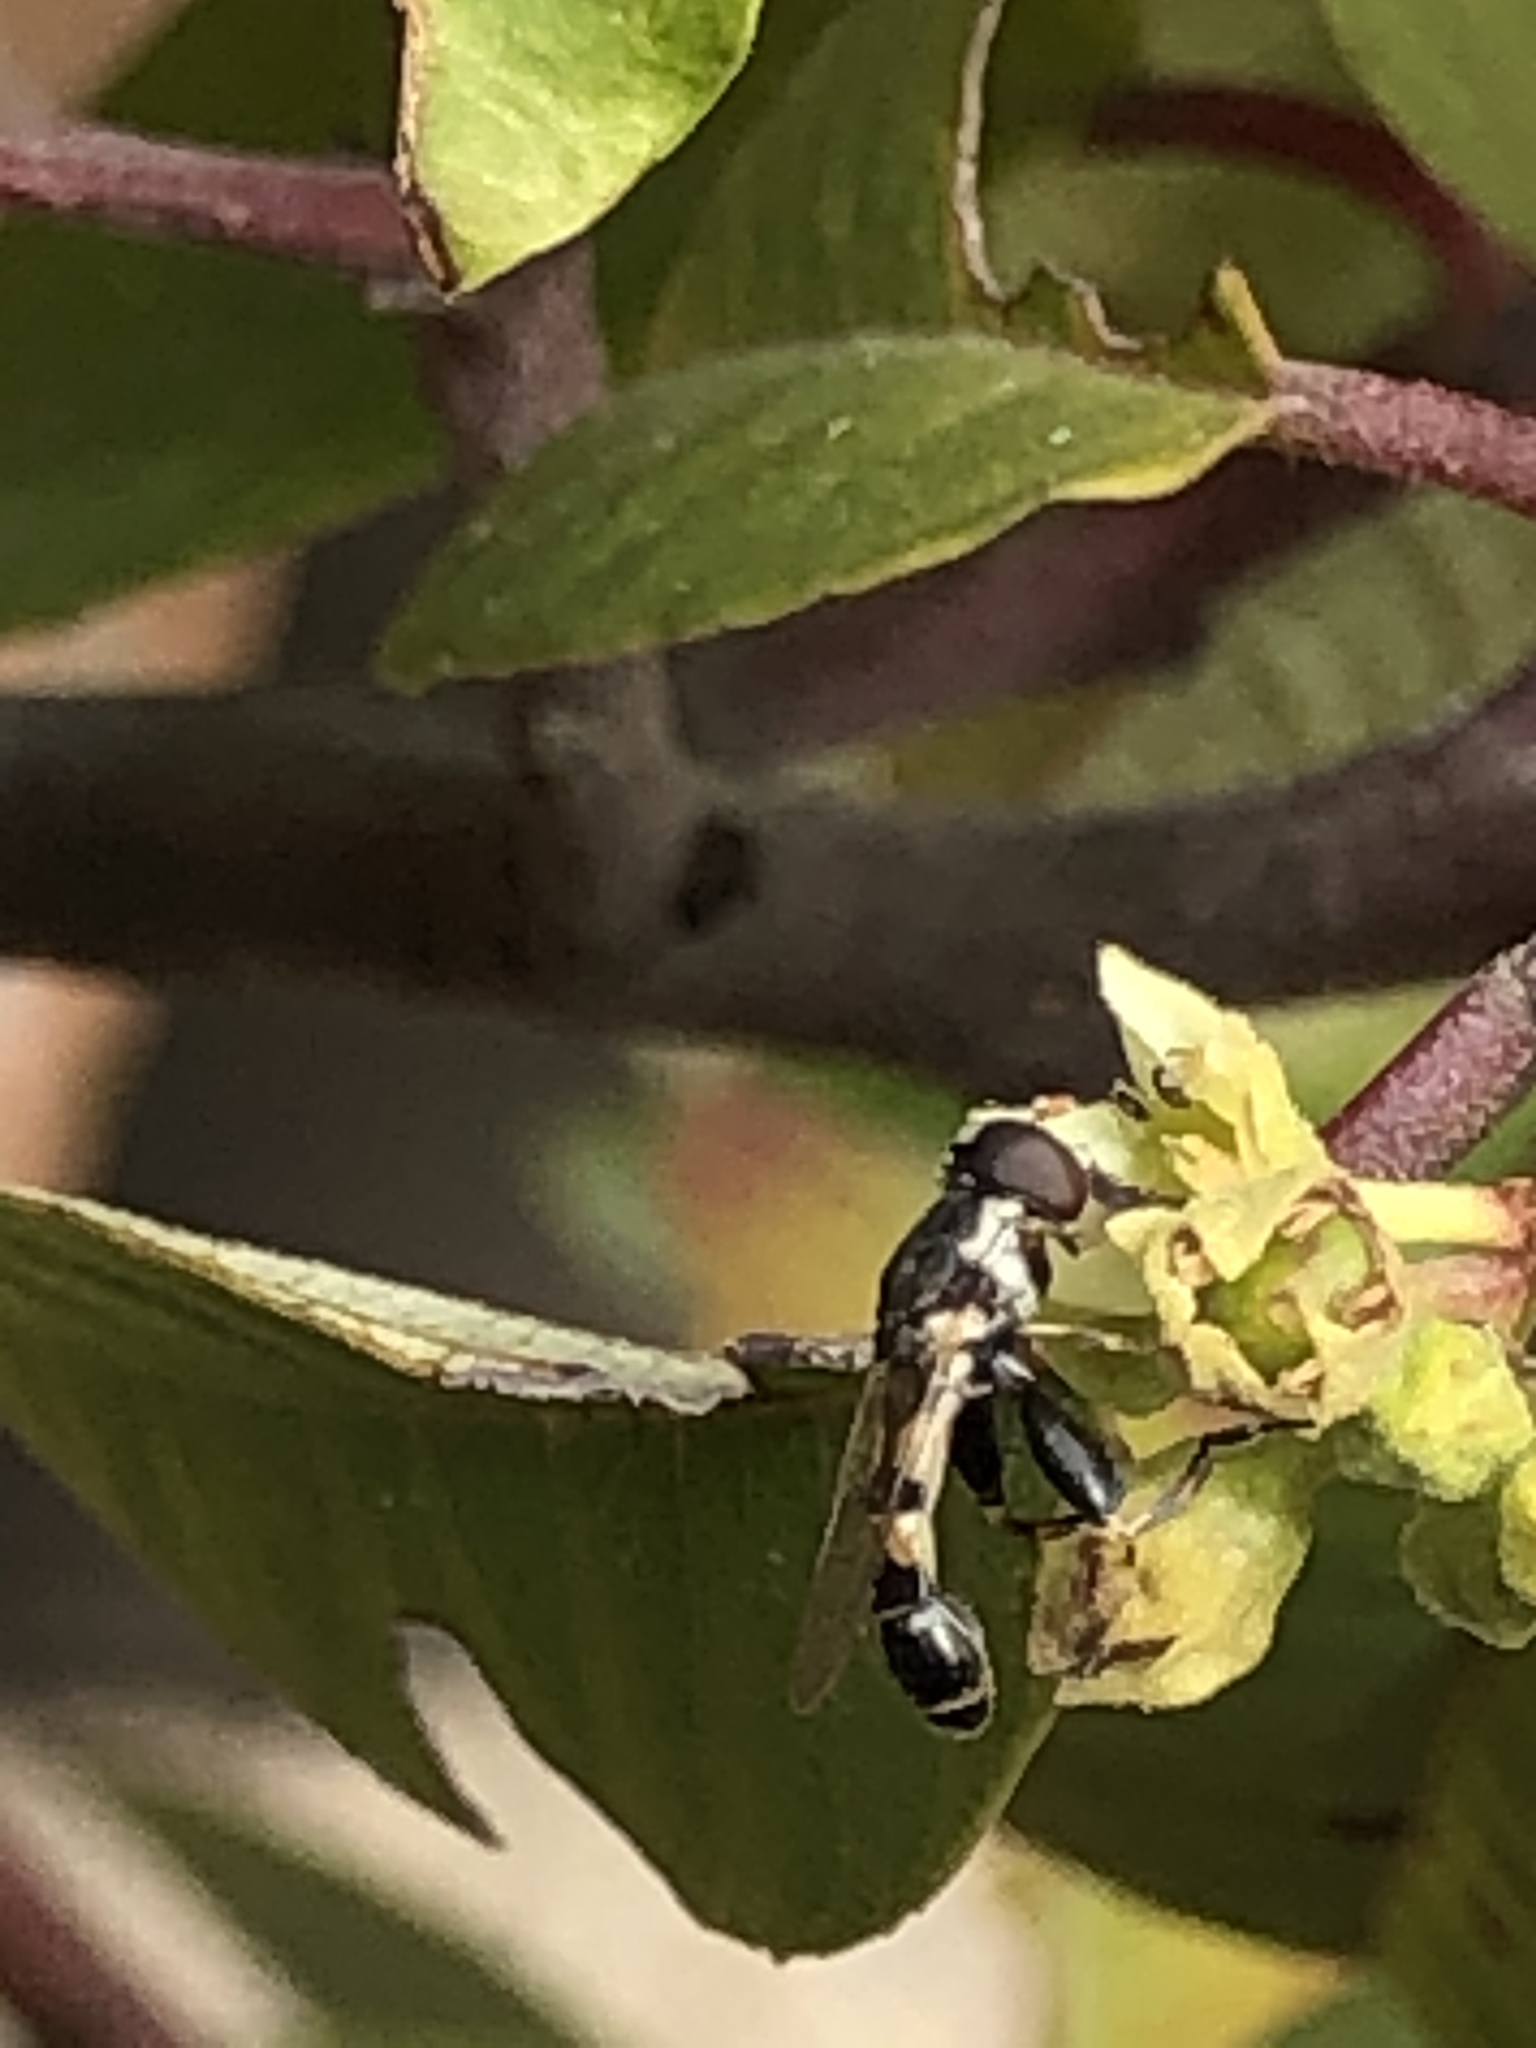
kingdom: Animalia
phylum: Arthropoda
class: Insecta
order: Diptera
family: Syrphidae
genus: Syritta
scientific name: Syritta pipiens
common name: Hover fly
